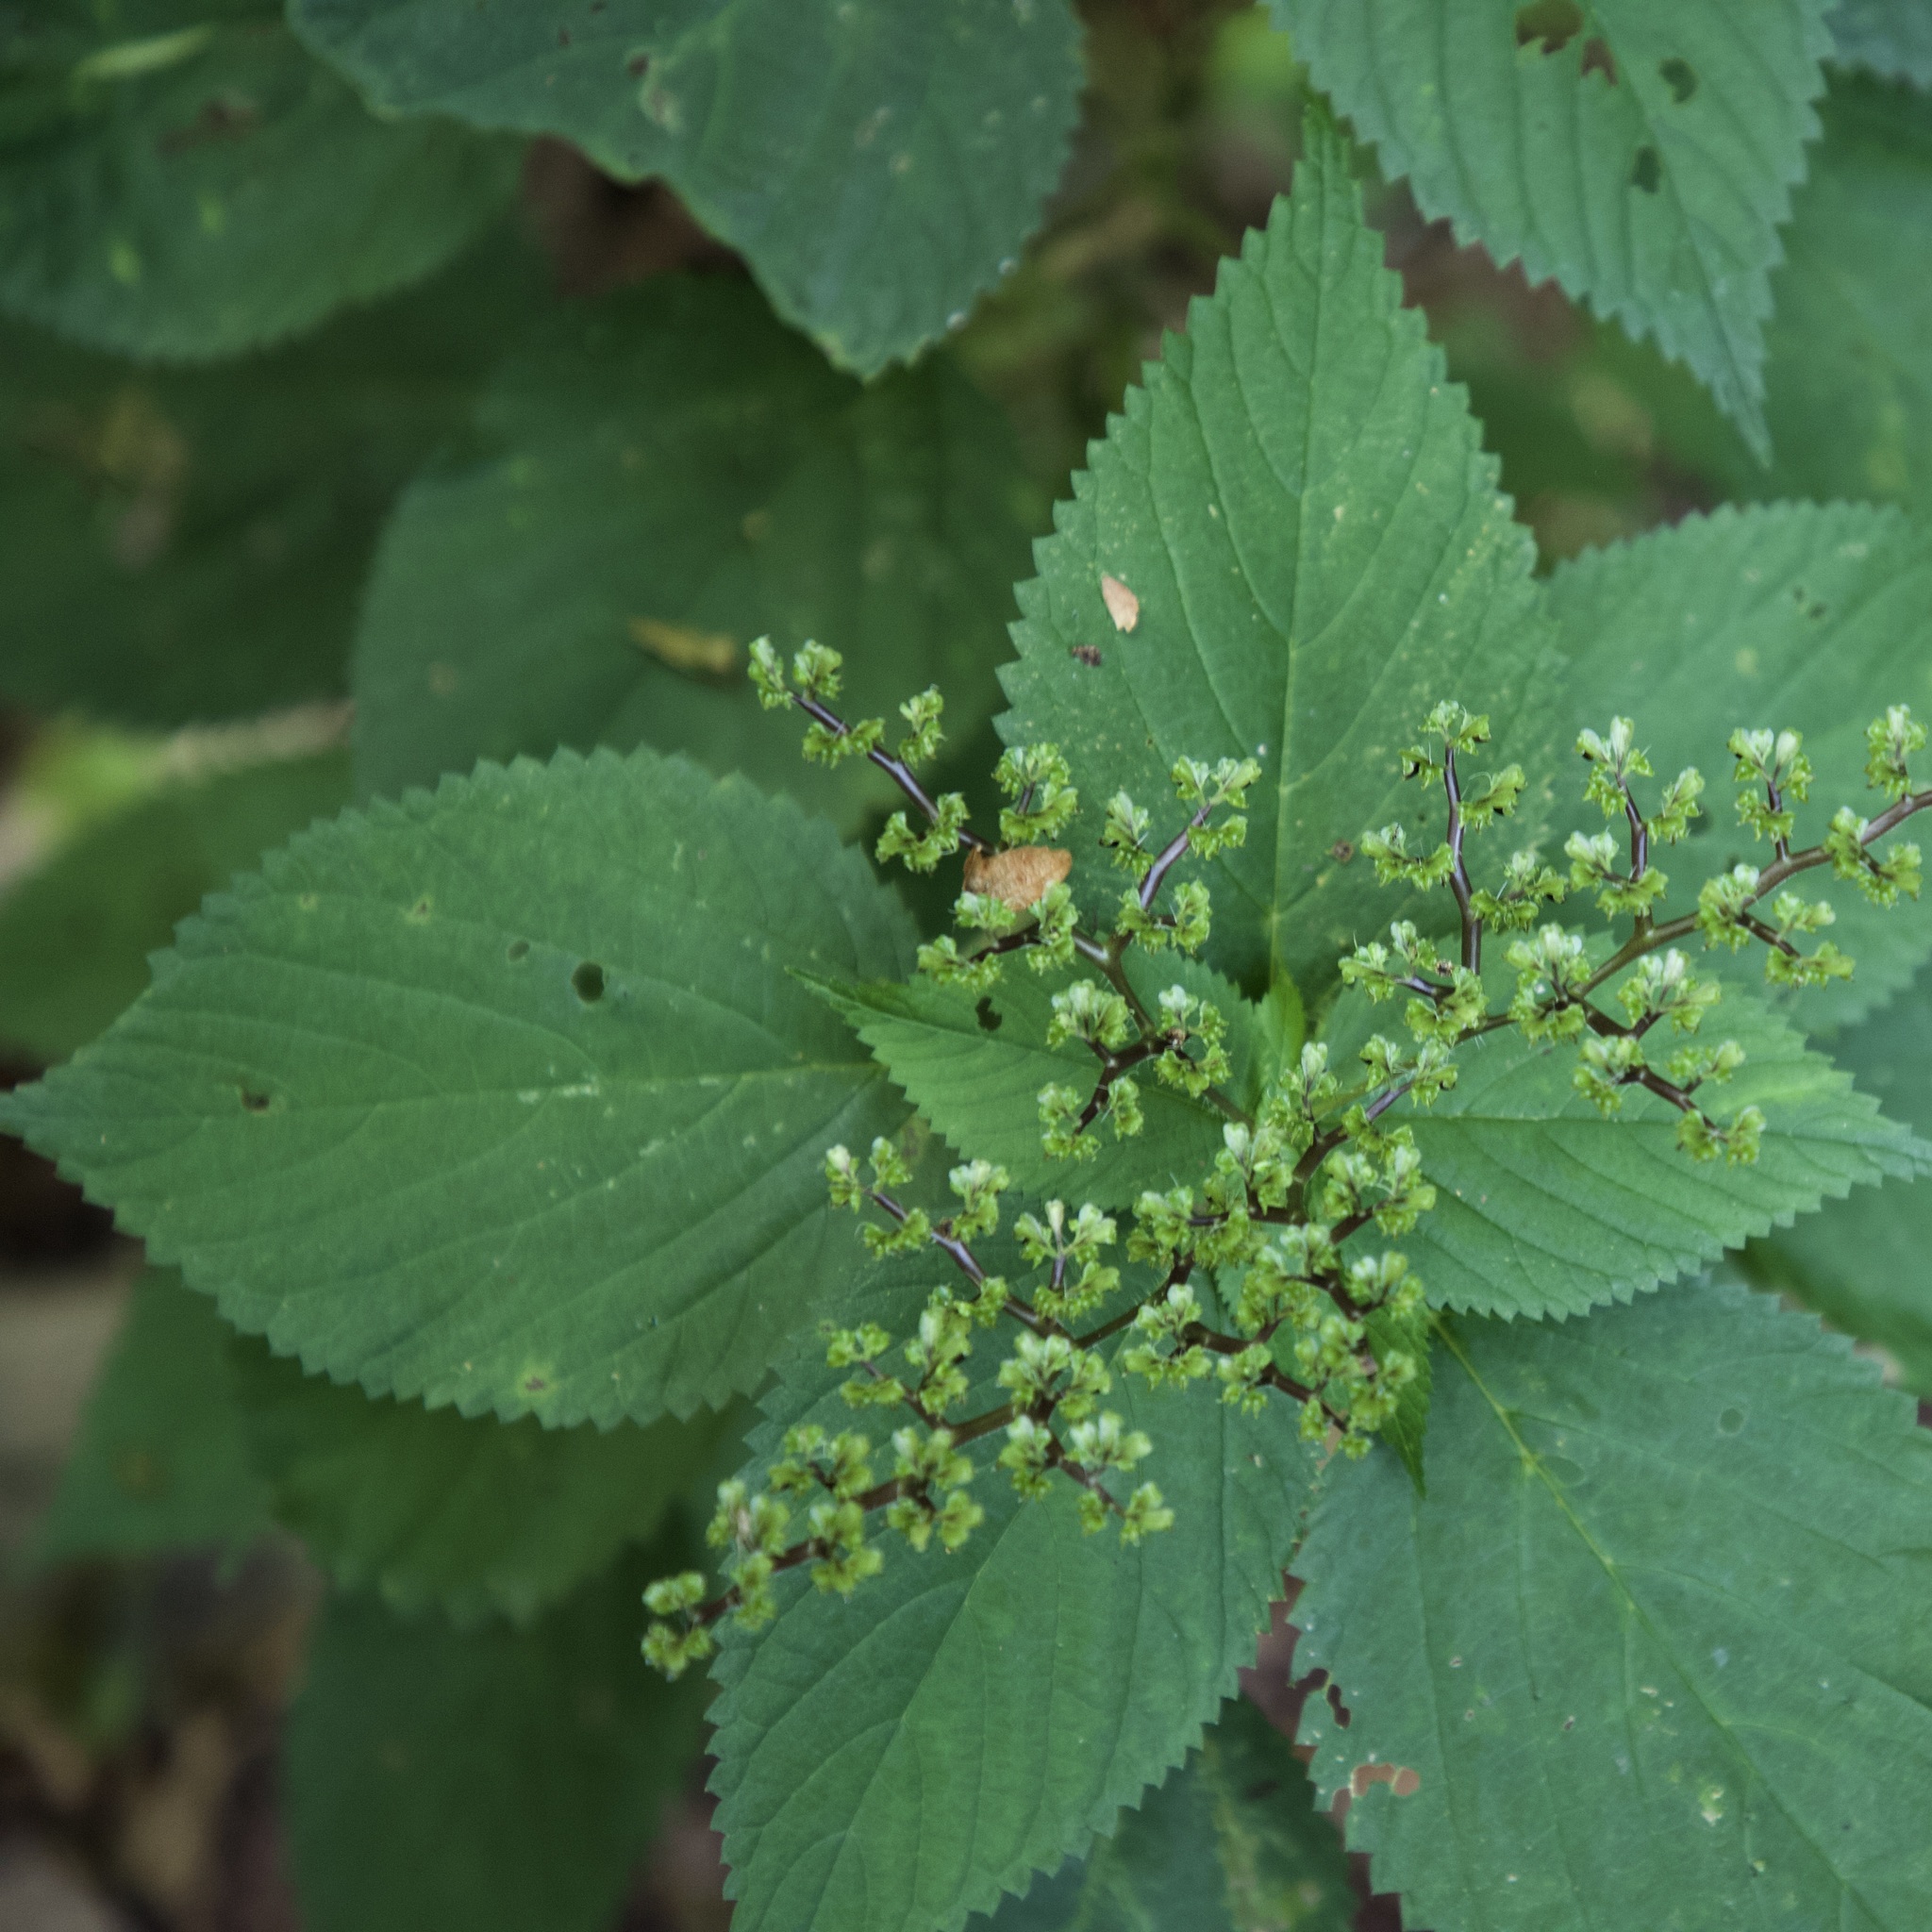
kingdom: Plantae
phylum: Tracheophyta
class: Magnoliopsida
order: Rosales
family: Urticaceae
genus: Laportea
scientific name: Laportea canadensis
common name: Canada nettle
